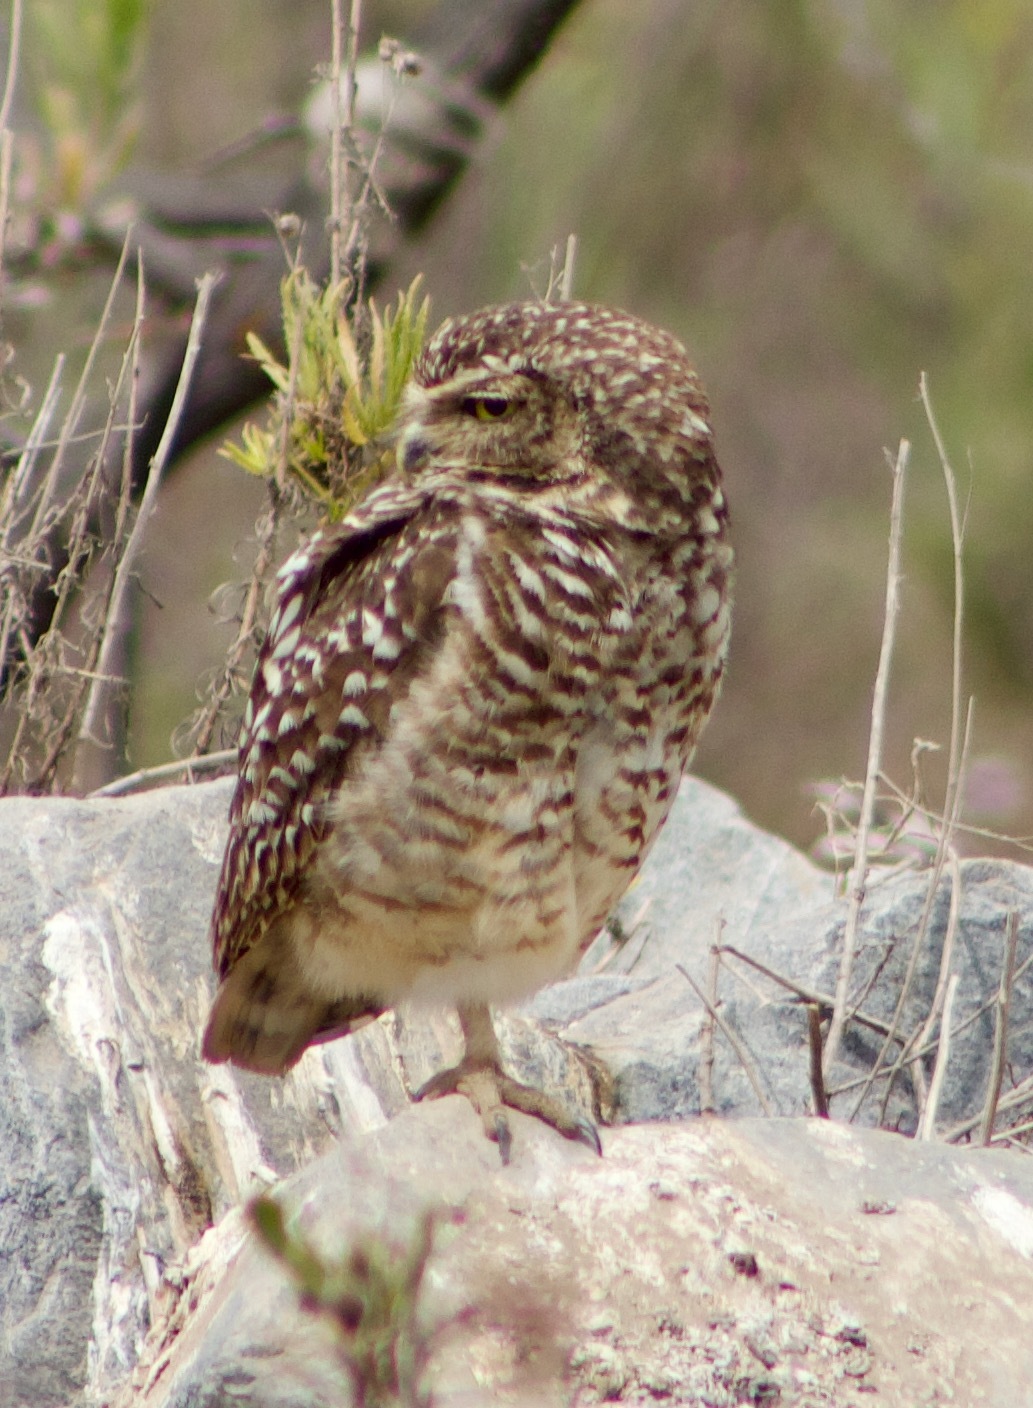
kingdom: Animalia
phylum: Chordata
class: Aves
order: Strigiformes
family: Strigidae
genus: Athene
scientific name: Athene cunicularia
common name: Burrowing owl
